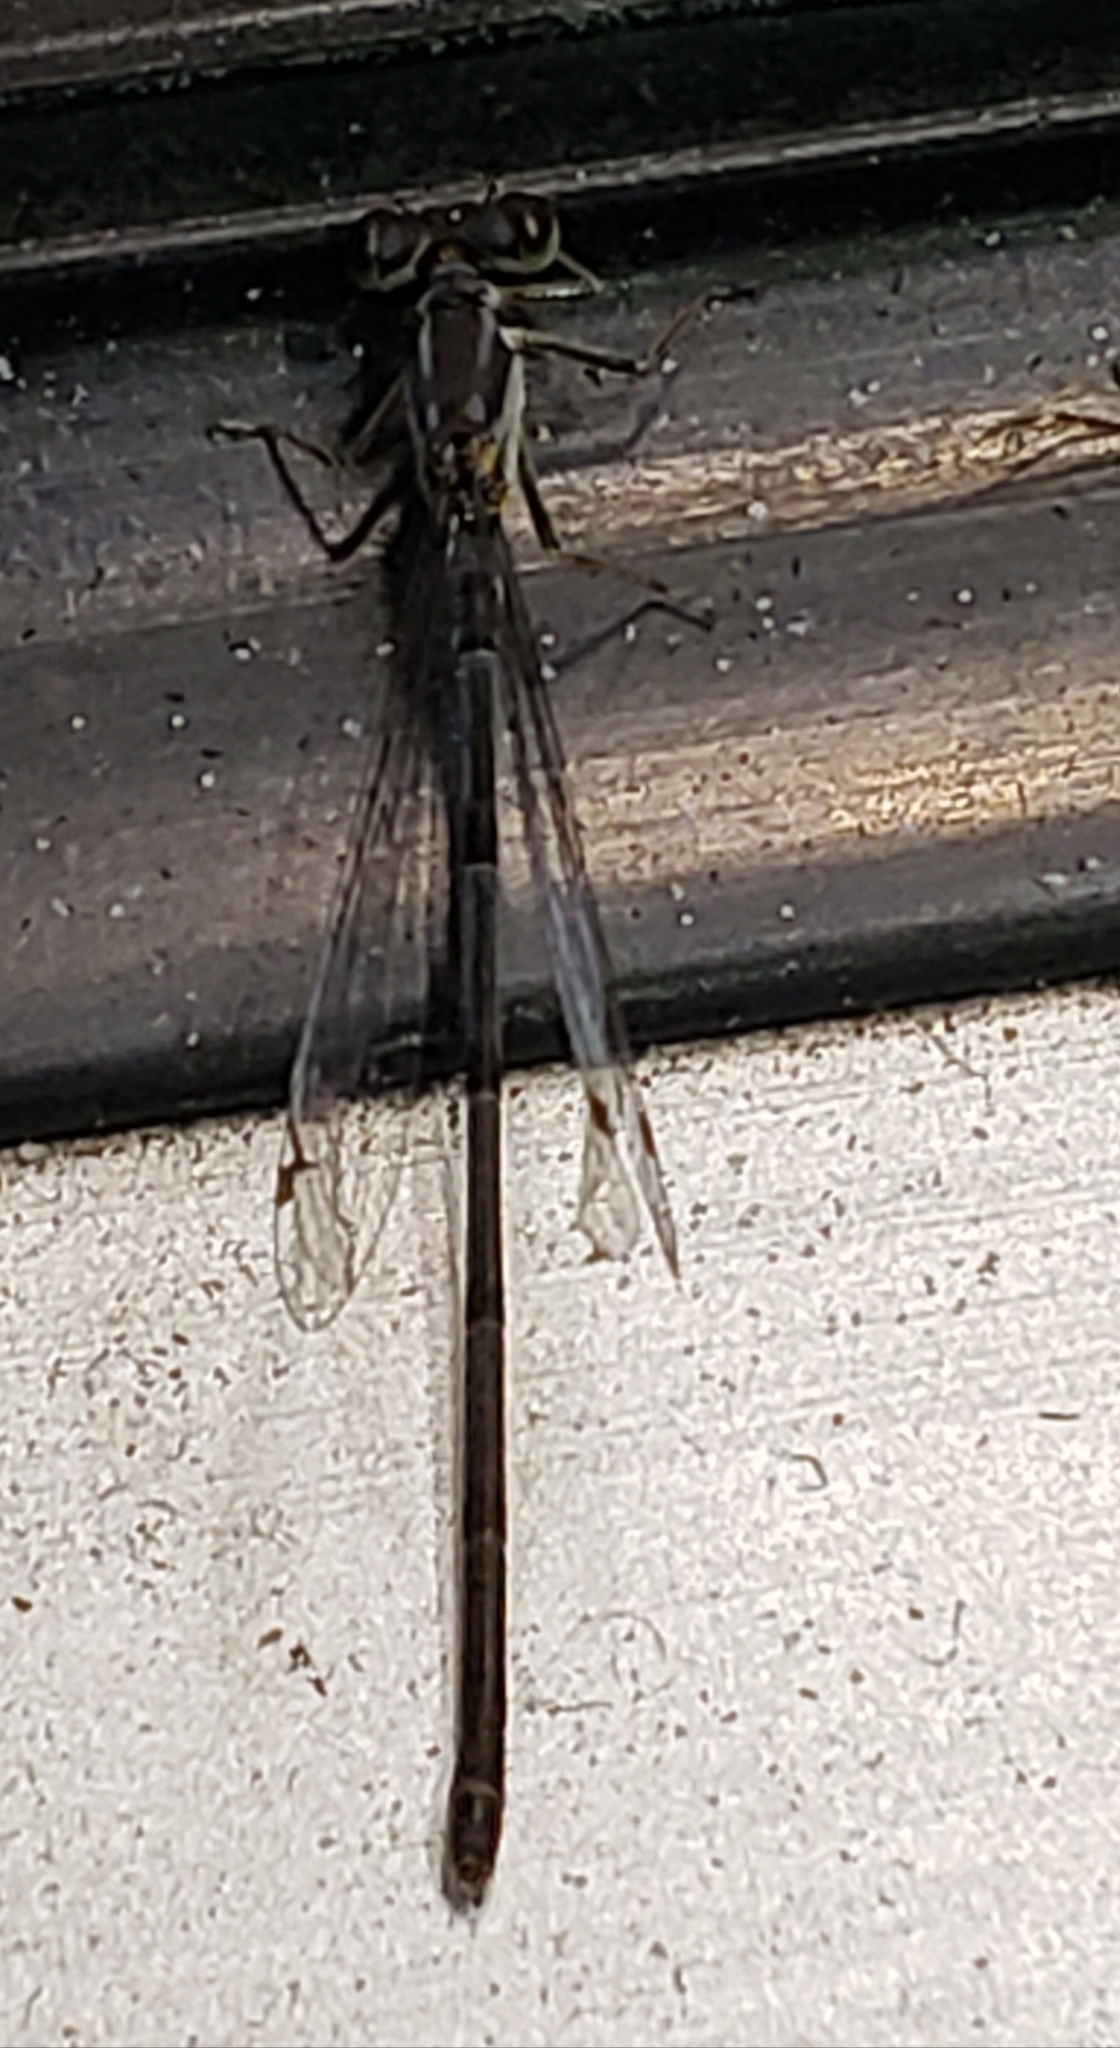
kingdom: Animalia
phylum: Arthropoda
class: Insecta
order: Odonata
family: Coenagrionidae
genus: Ischnura
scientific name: Ischnura posita
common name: Fragile forktail
